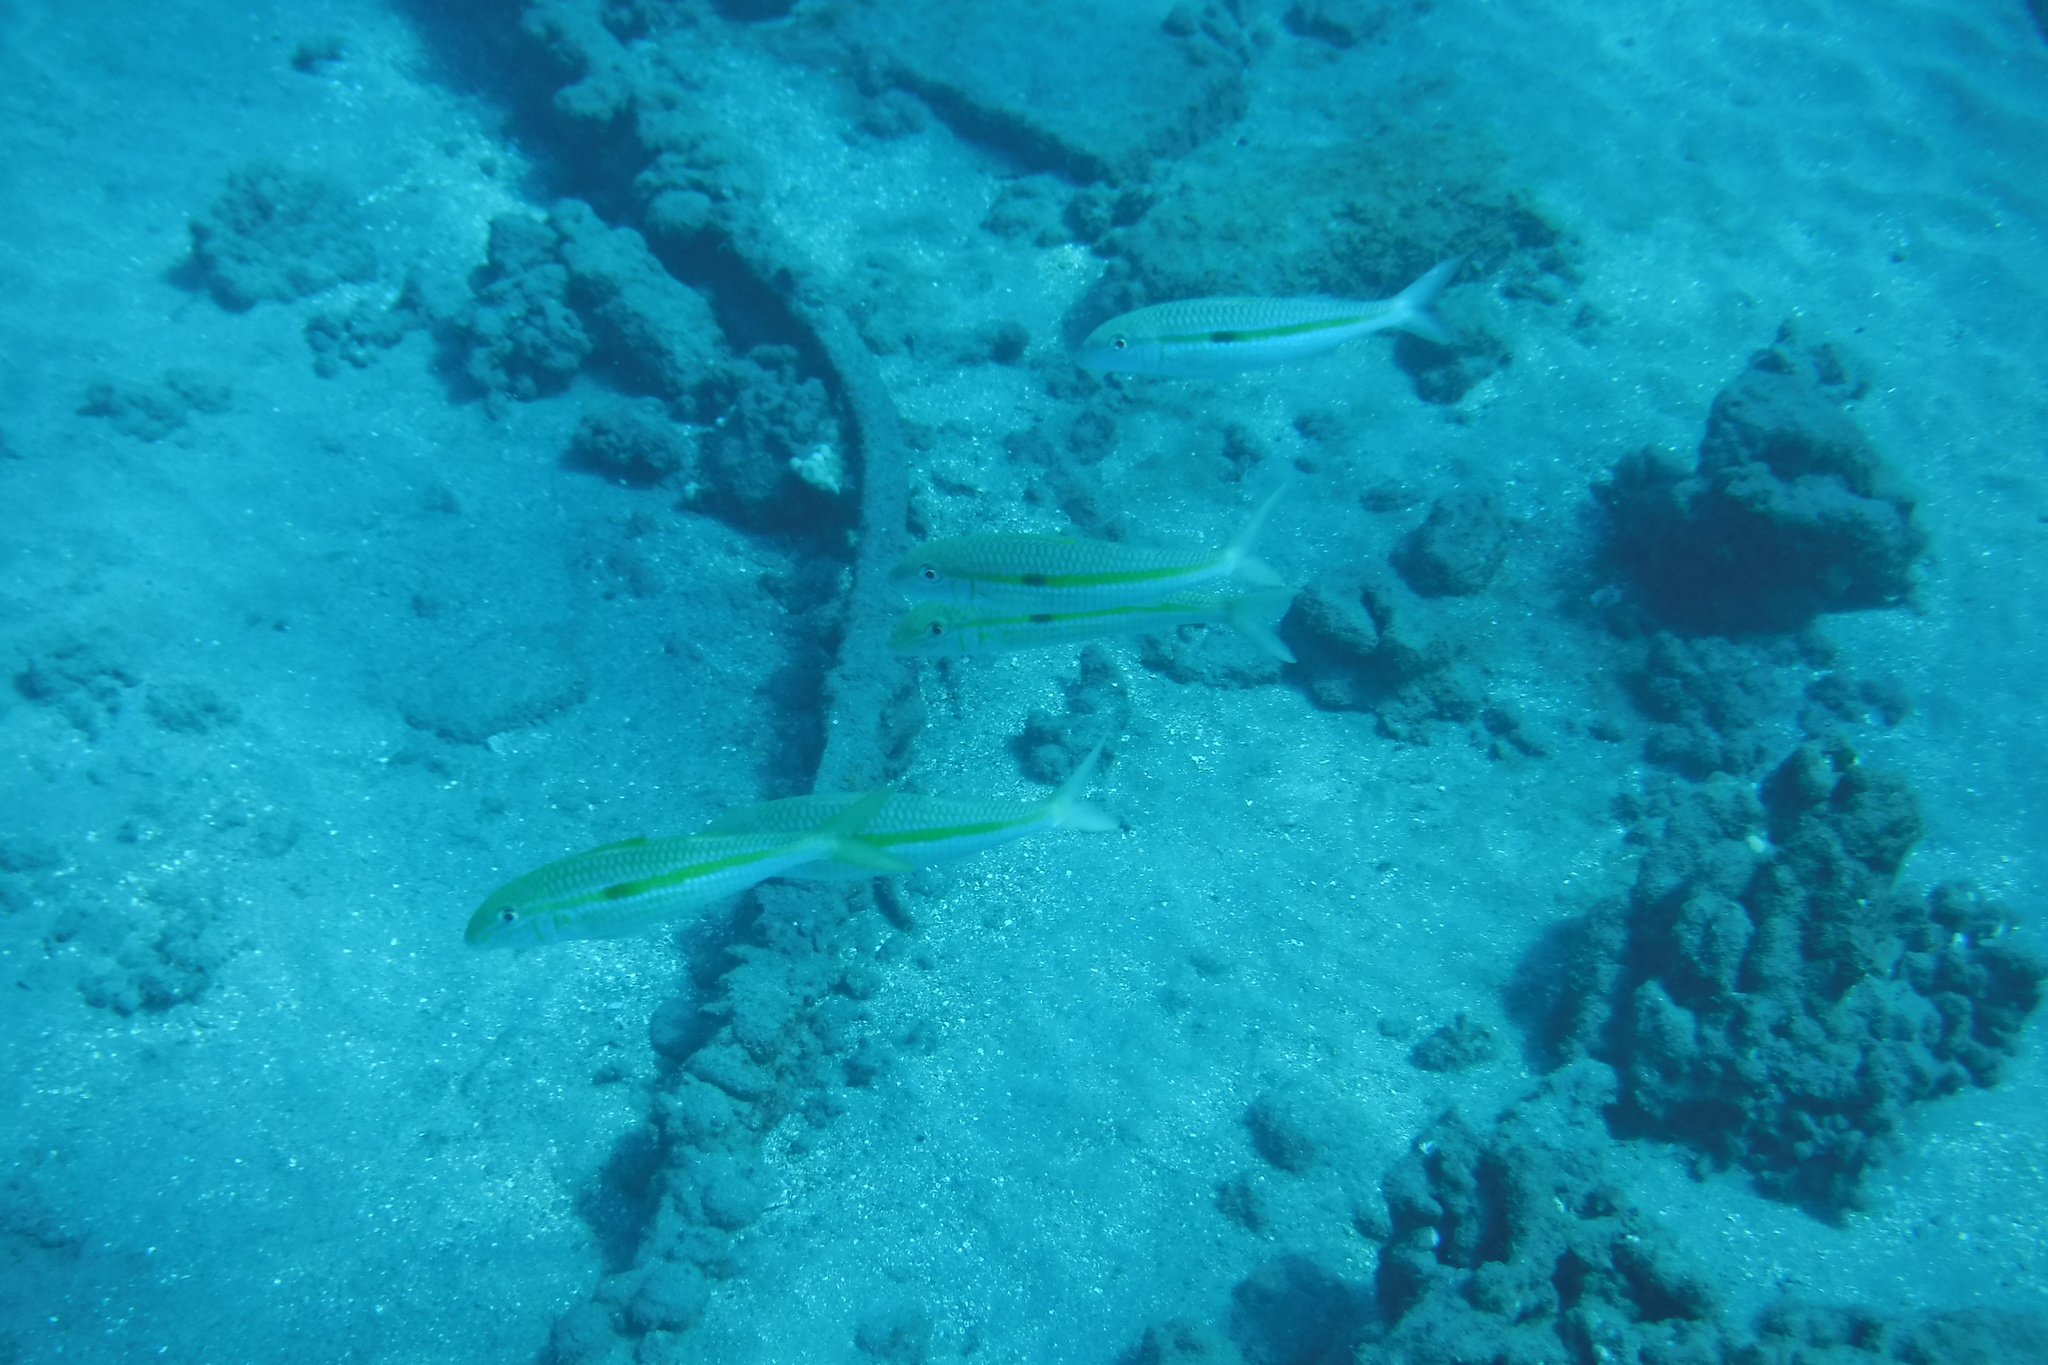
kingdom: Animalia
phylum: Chordata
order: Perciformes
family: Mullidae
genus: Mulloidichthys
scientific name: Mulloidichthys flavolineatus
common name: Yellowstripe goatfish
